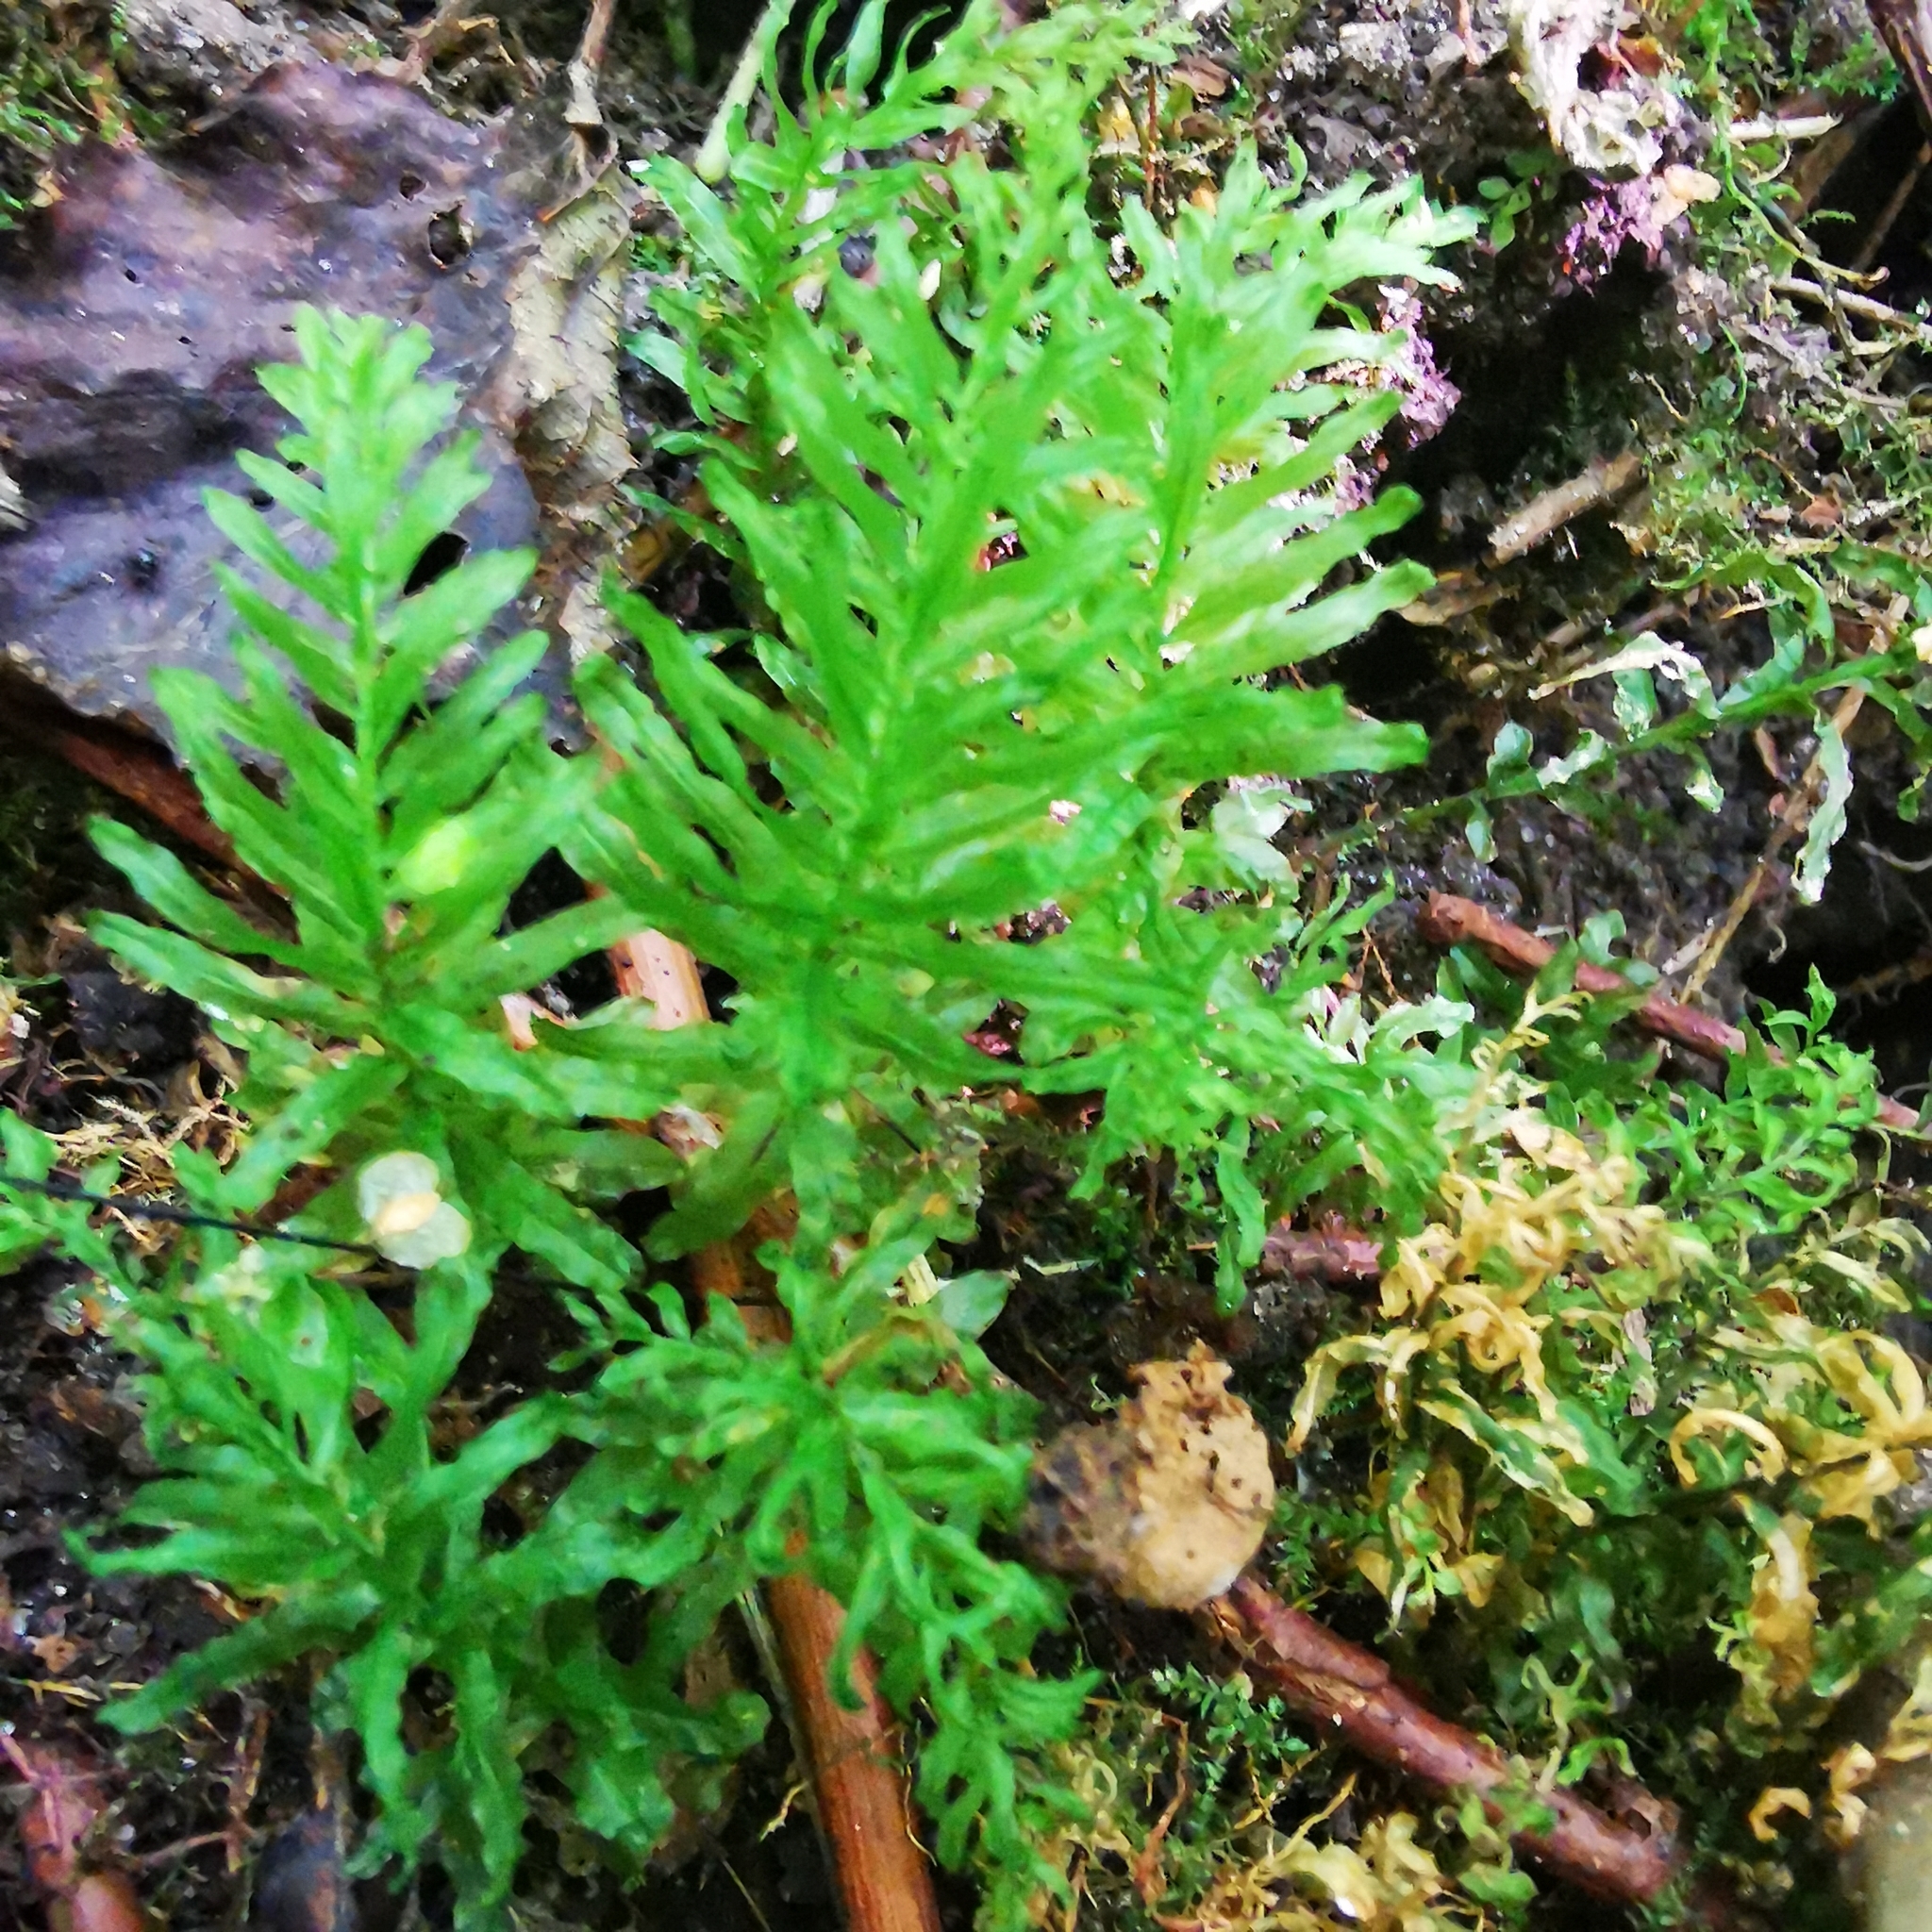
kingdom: Plantae
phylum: Bryophyta
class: Bryopsida
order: Bryales
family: Mniaceae
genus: Plagiomnium
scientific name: Plagiomnium undulatum
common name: Hart's-tongue thyme-moss
